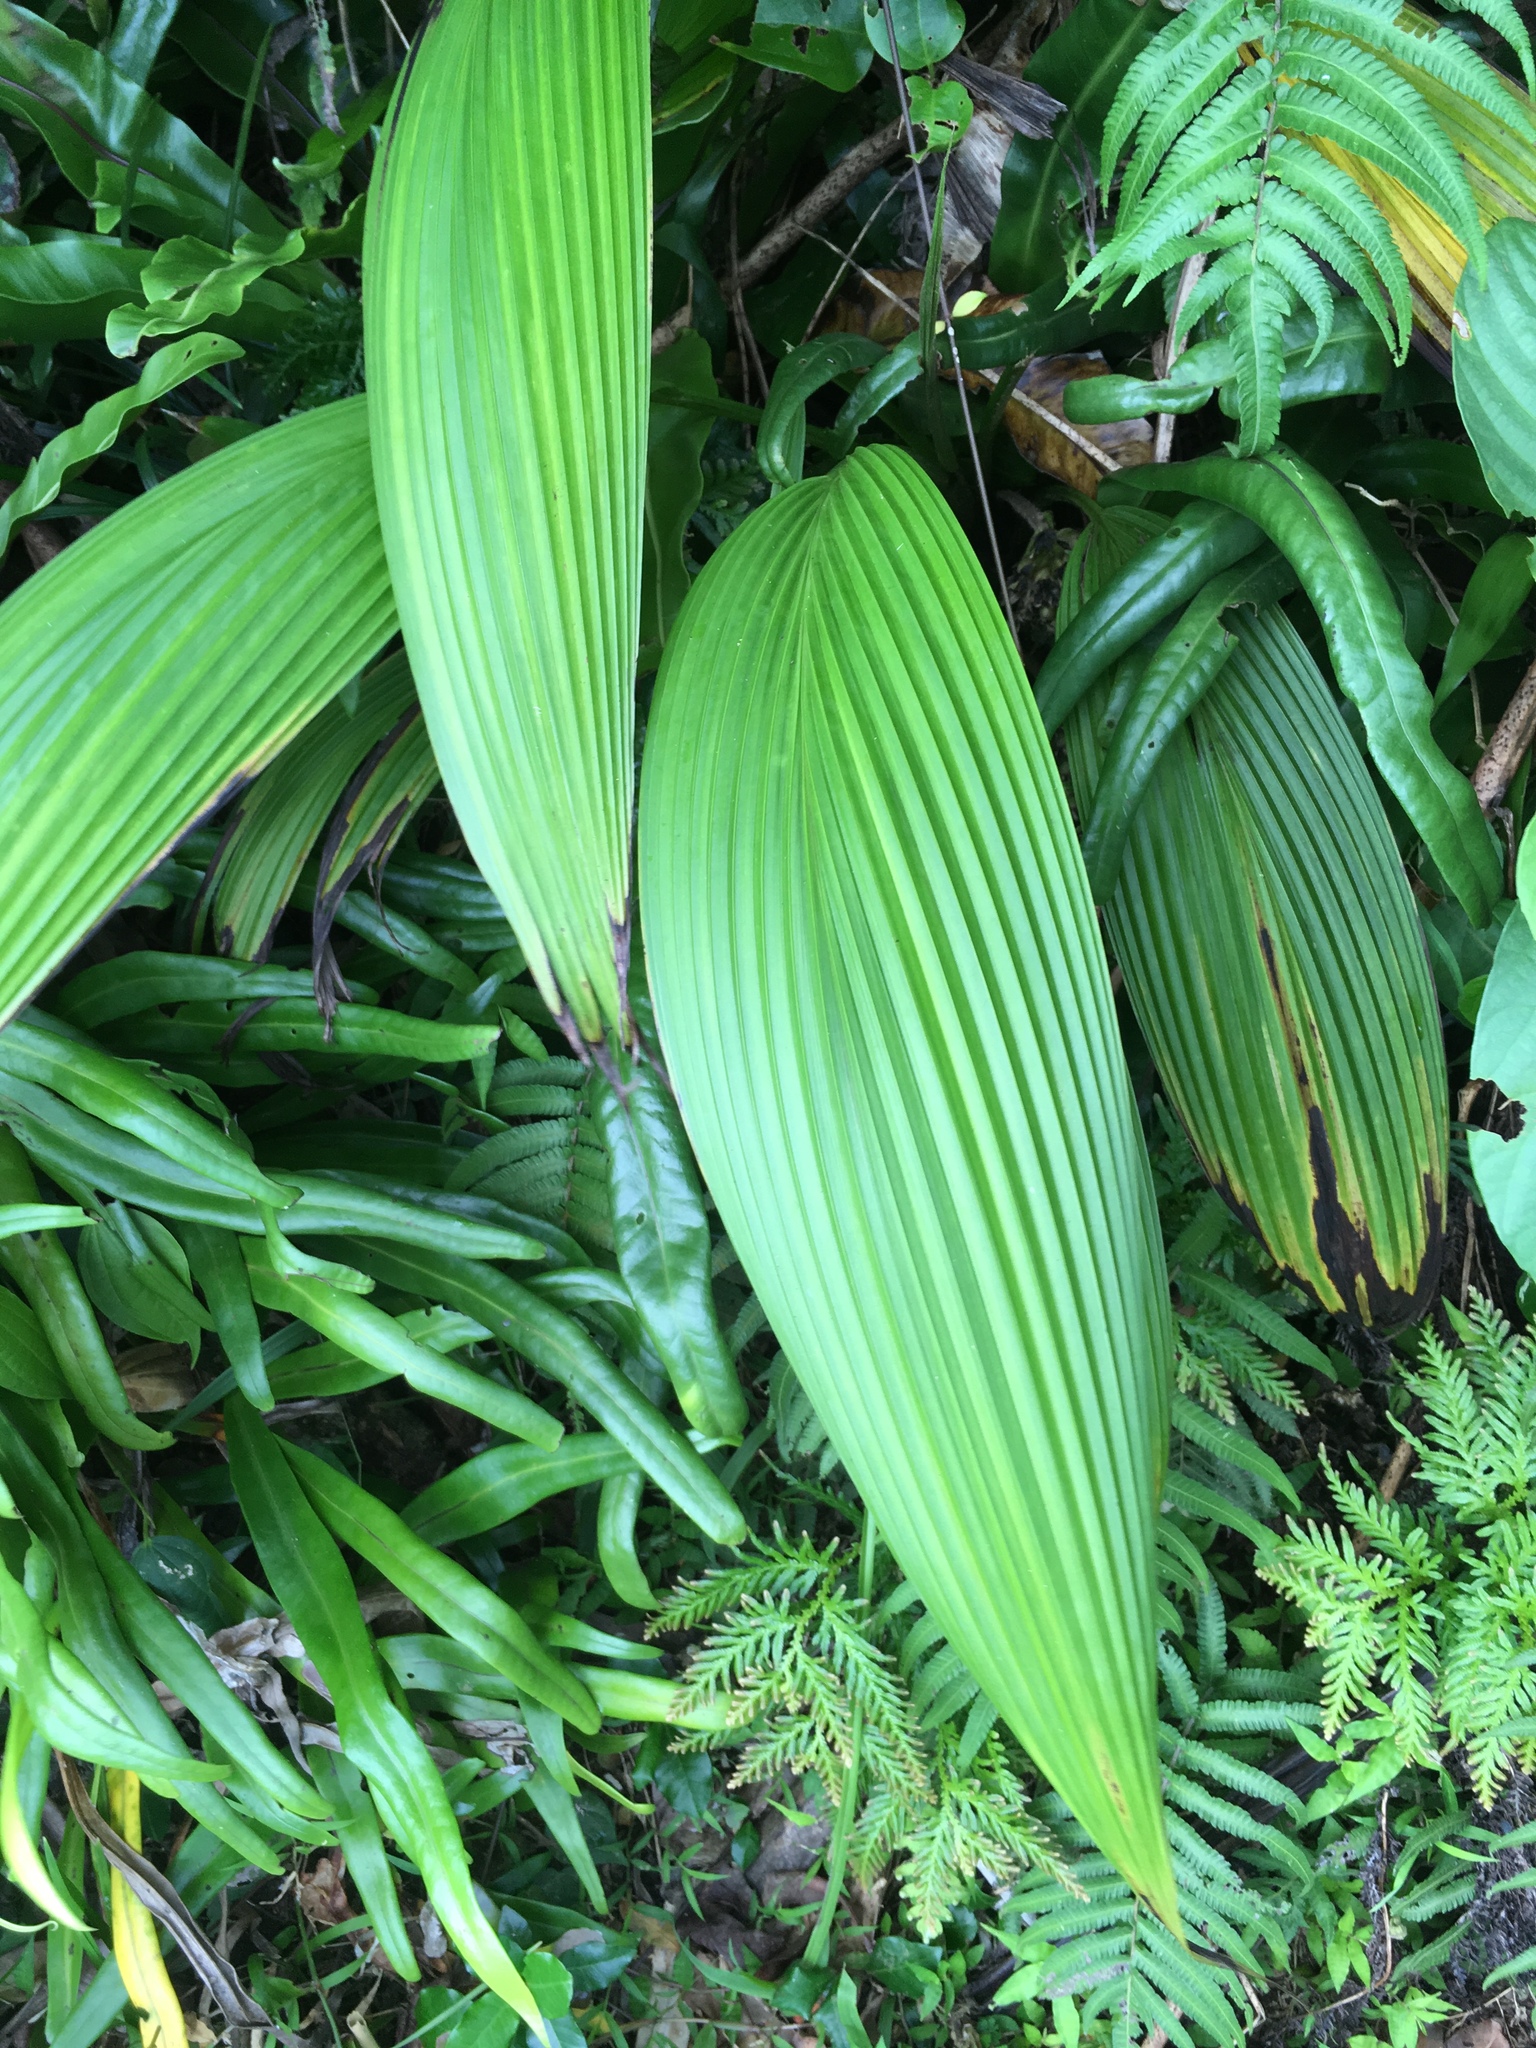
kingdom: Plantae
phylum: Tracheophyta
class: Liliopsida
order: Poales
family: Poaceae
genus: Setaria
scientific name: Setaria palmifolia
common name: Broadleaved bristlegrass
